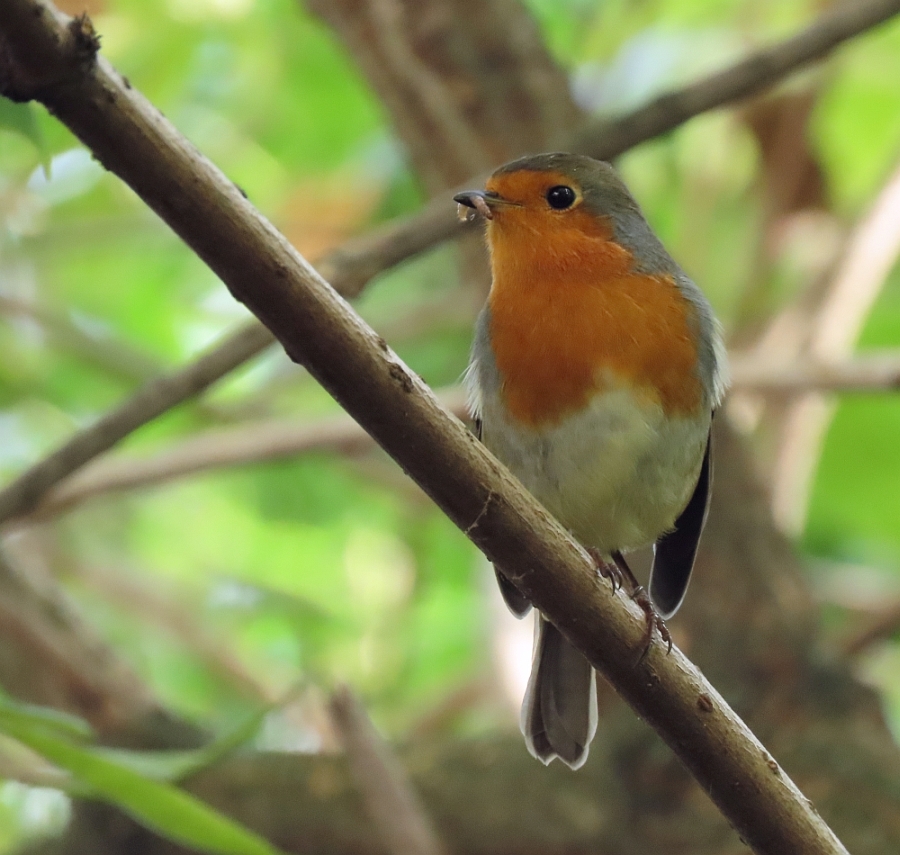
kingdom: Animalia
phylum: Chordata
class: Aves
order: Passeriformes
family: Muscicapidae
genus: Erithacus
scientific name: Erithacus rubecula
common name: European robin
